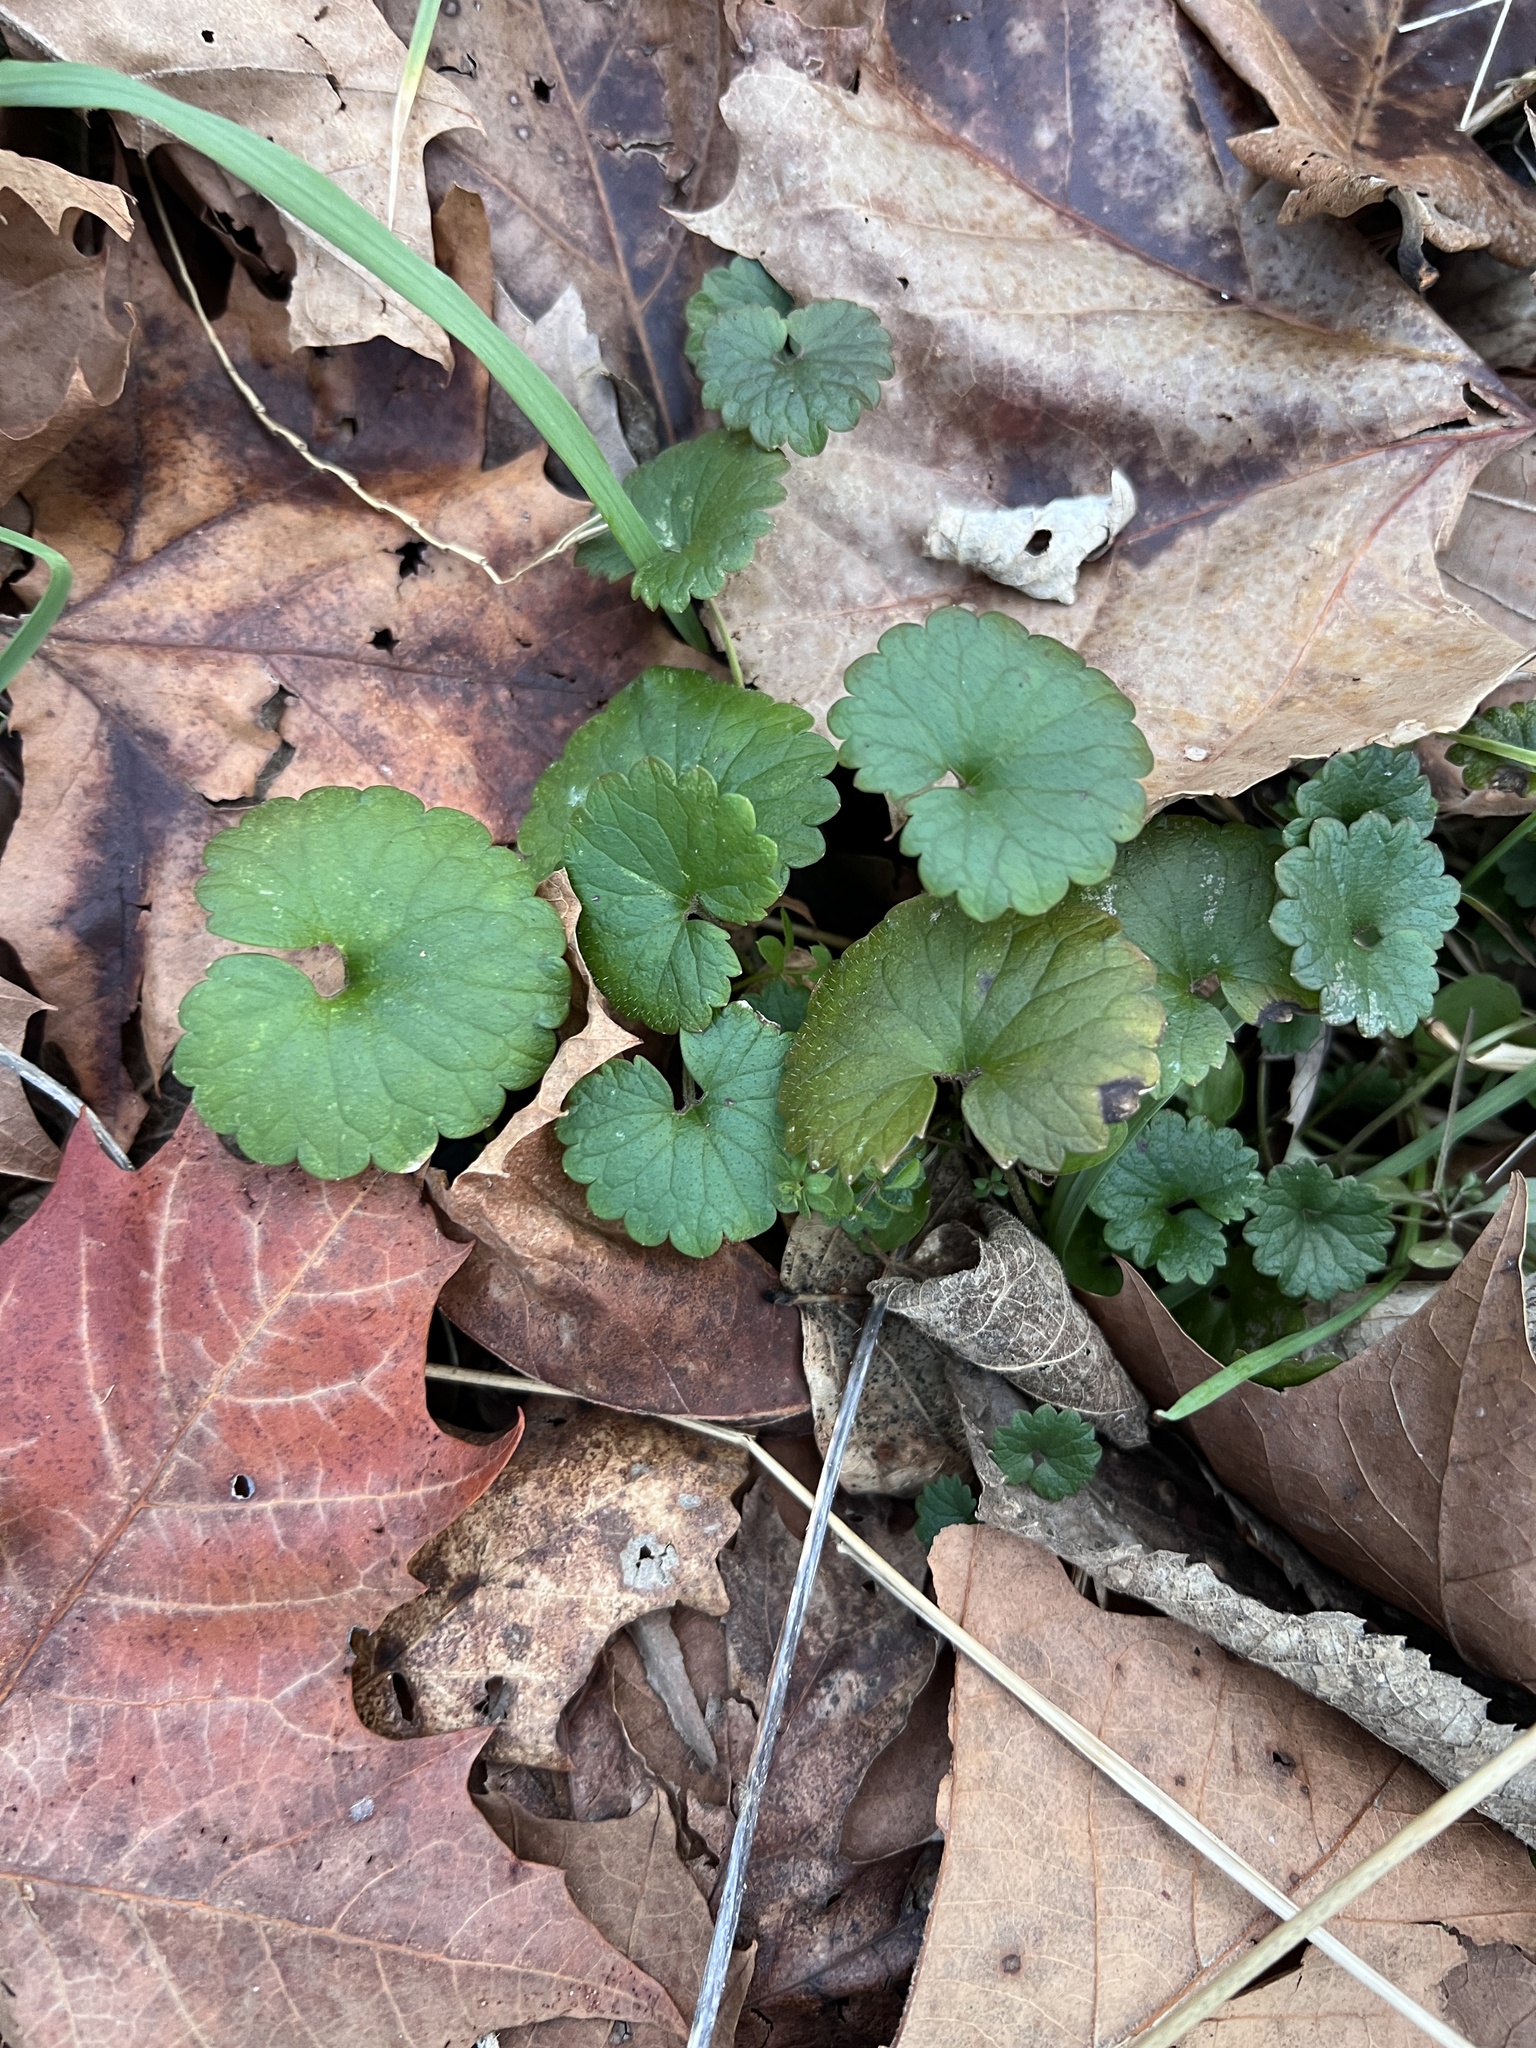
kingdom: Plantae
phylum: Tracheophyta
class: Magnoliopsida
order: Lamiales
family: Lamiaceae
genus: Glechoma
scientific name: Glechoma hederacea
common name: Ground ivy
